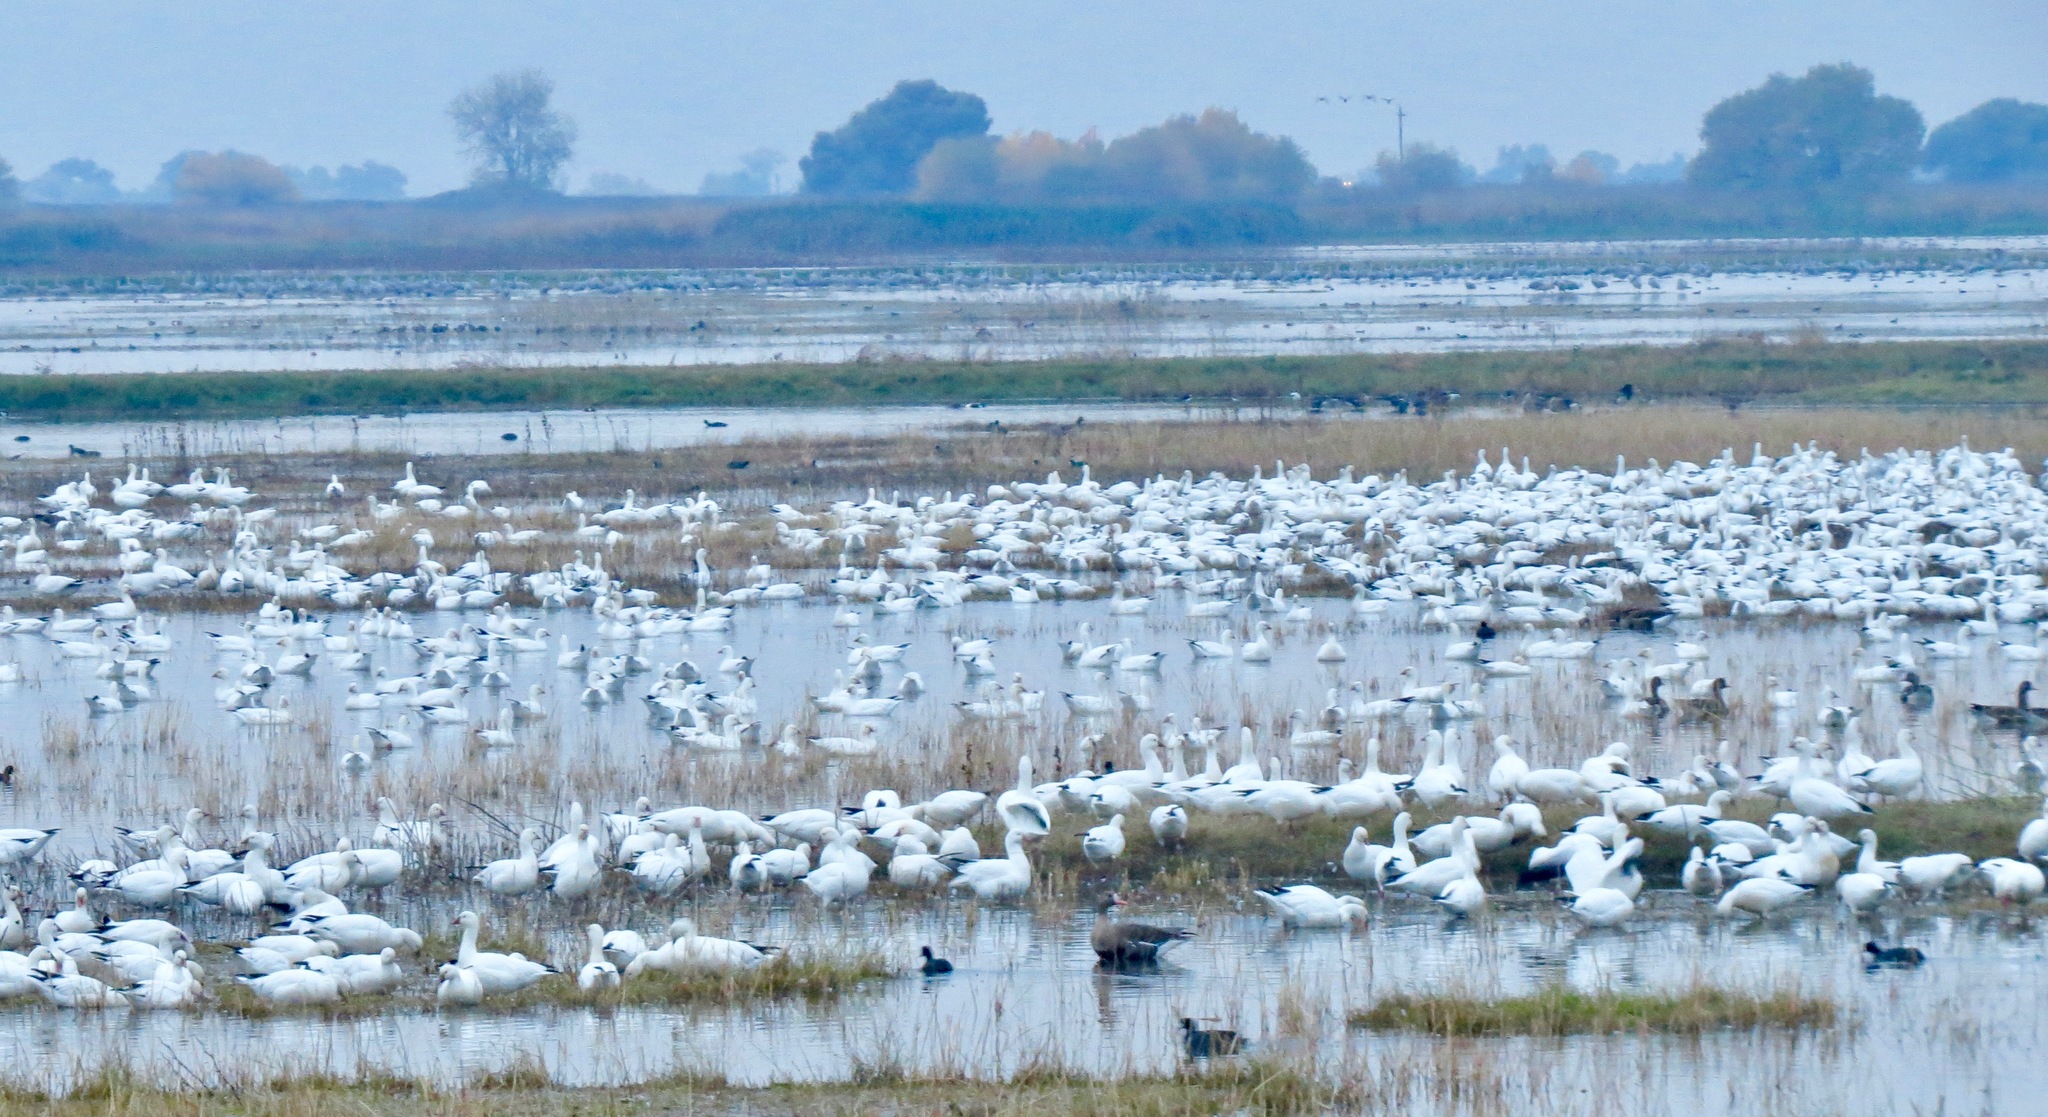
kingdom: Animalia
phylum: Chordata
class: Aves
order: Anseriformes
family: Anatidae
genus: Anser
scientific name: Anser caerulescens
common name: Snow goose
